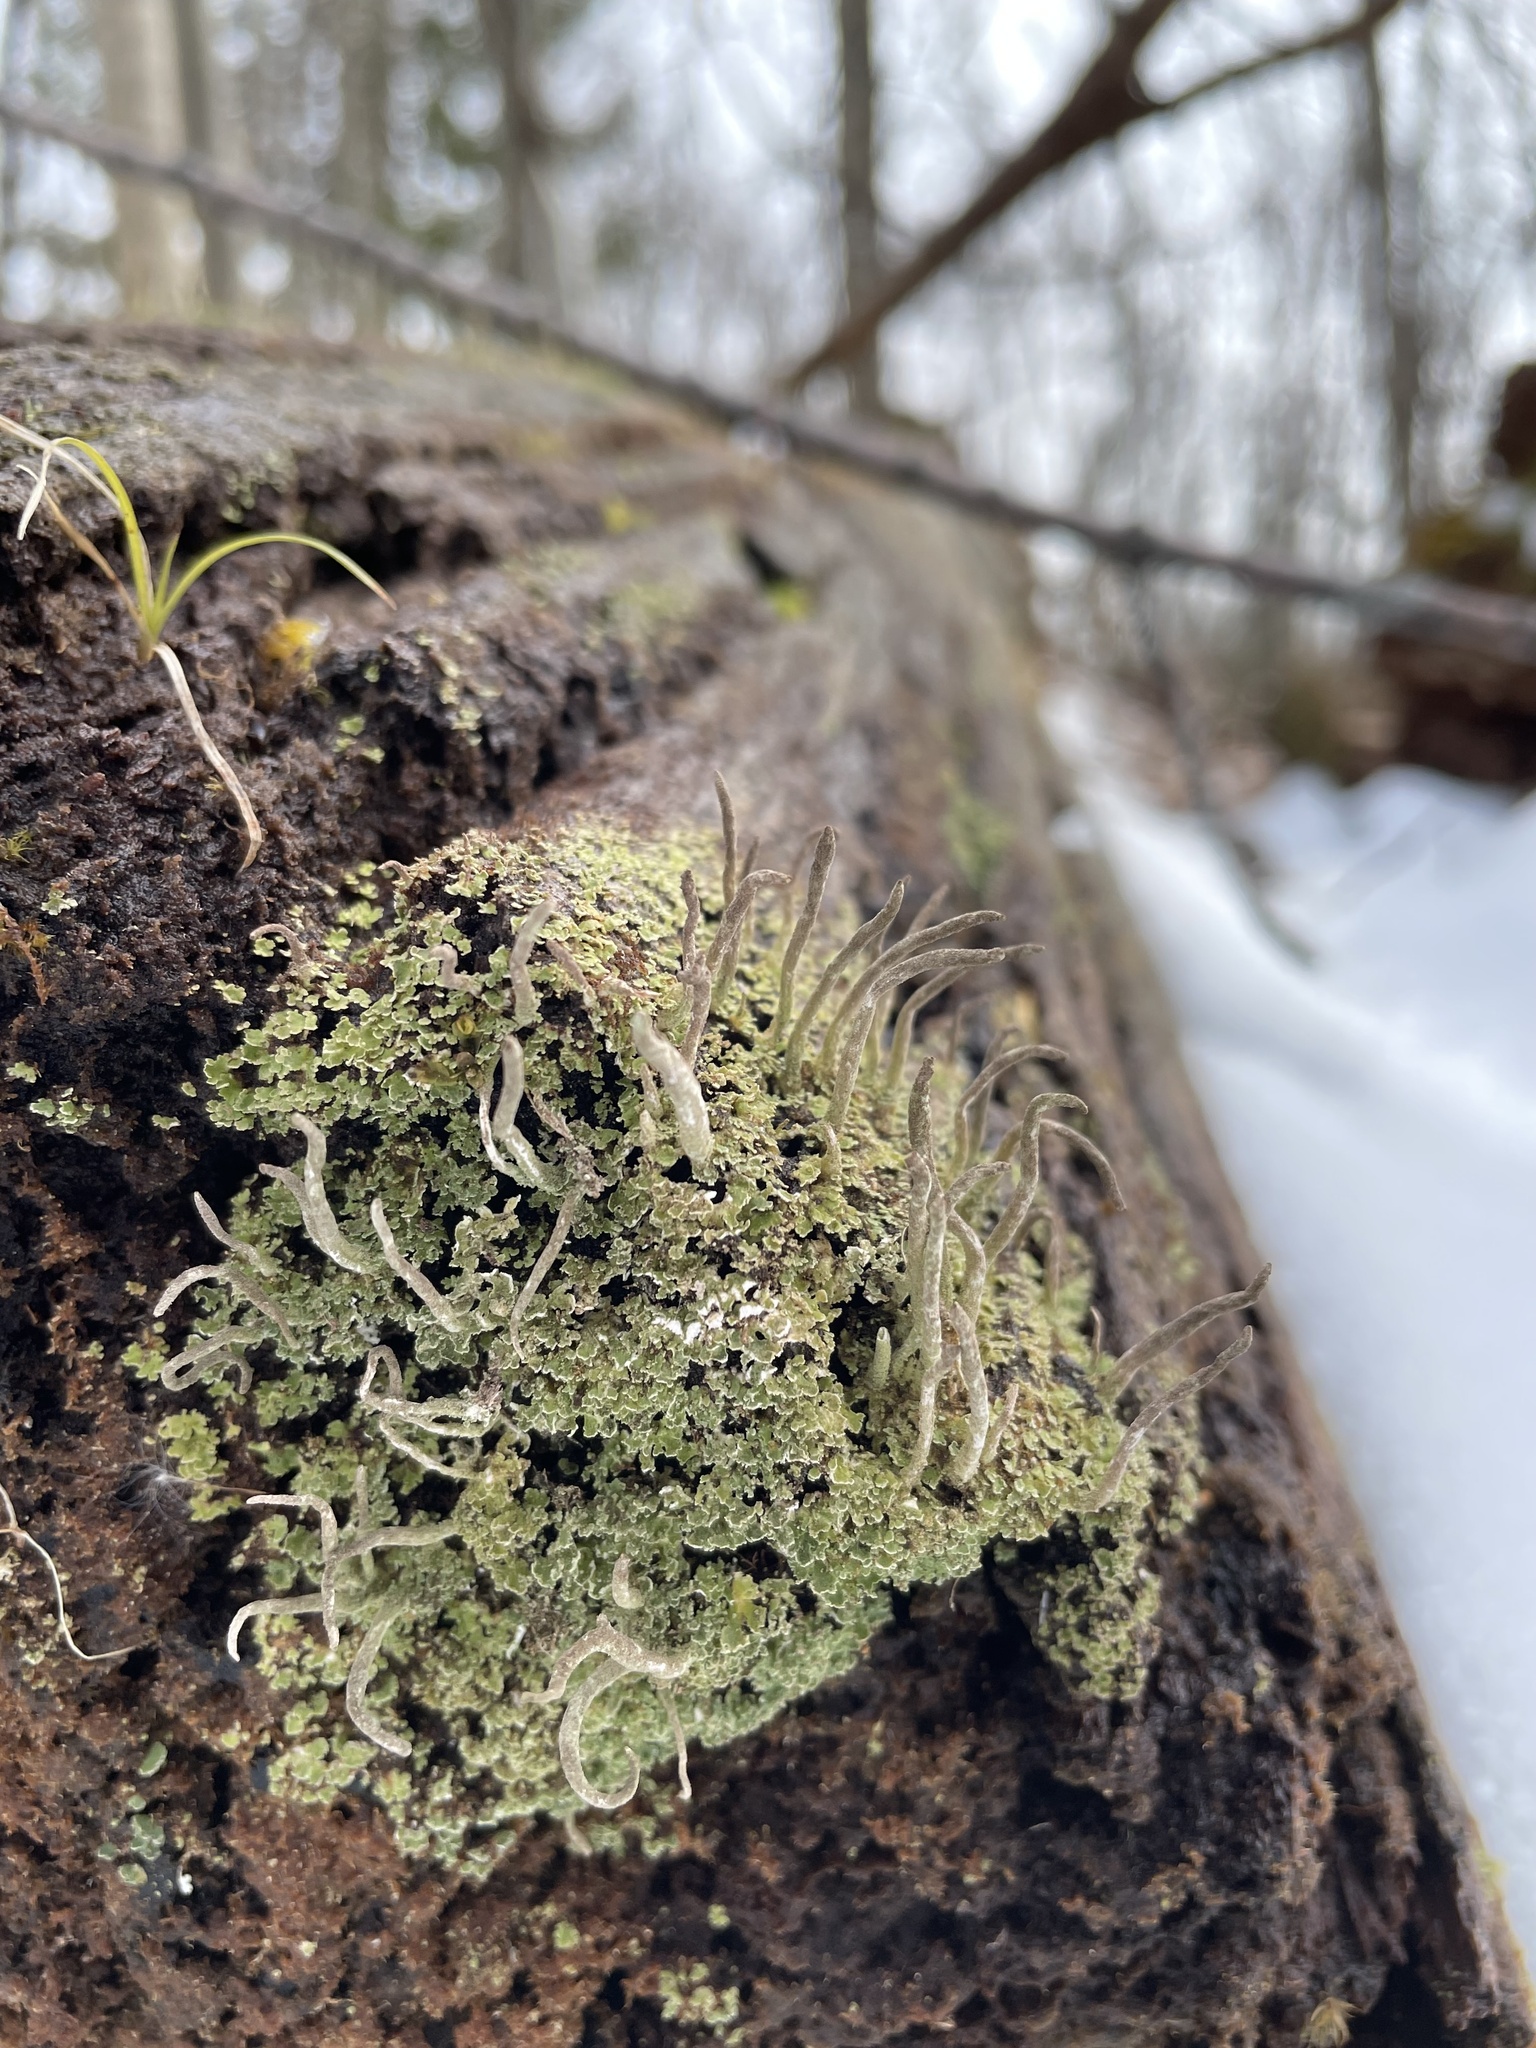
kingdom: Fungi
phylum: Ascomycota
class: Lecanoromycetes
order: Lecanorales
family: Cladoniaceae
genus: Cladonia
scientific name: Cladonia coniocraea
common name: Common powderhorn
